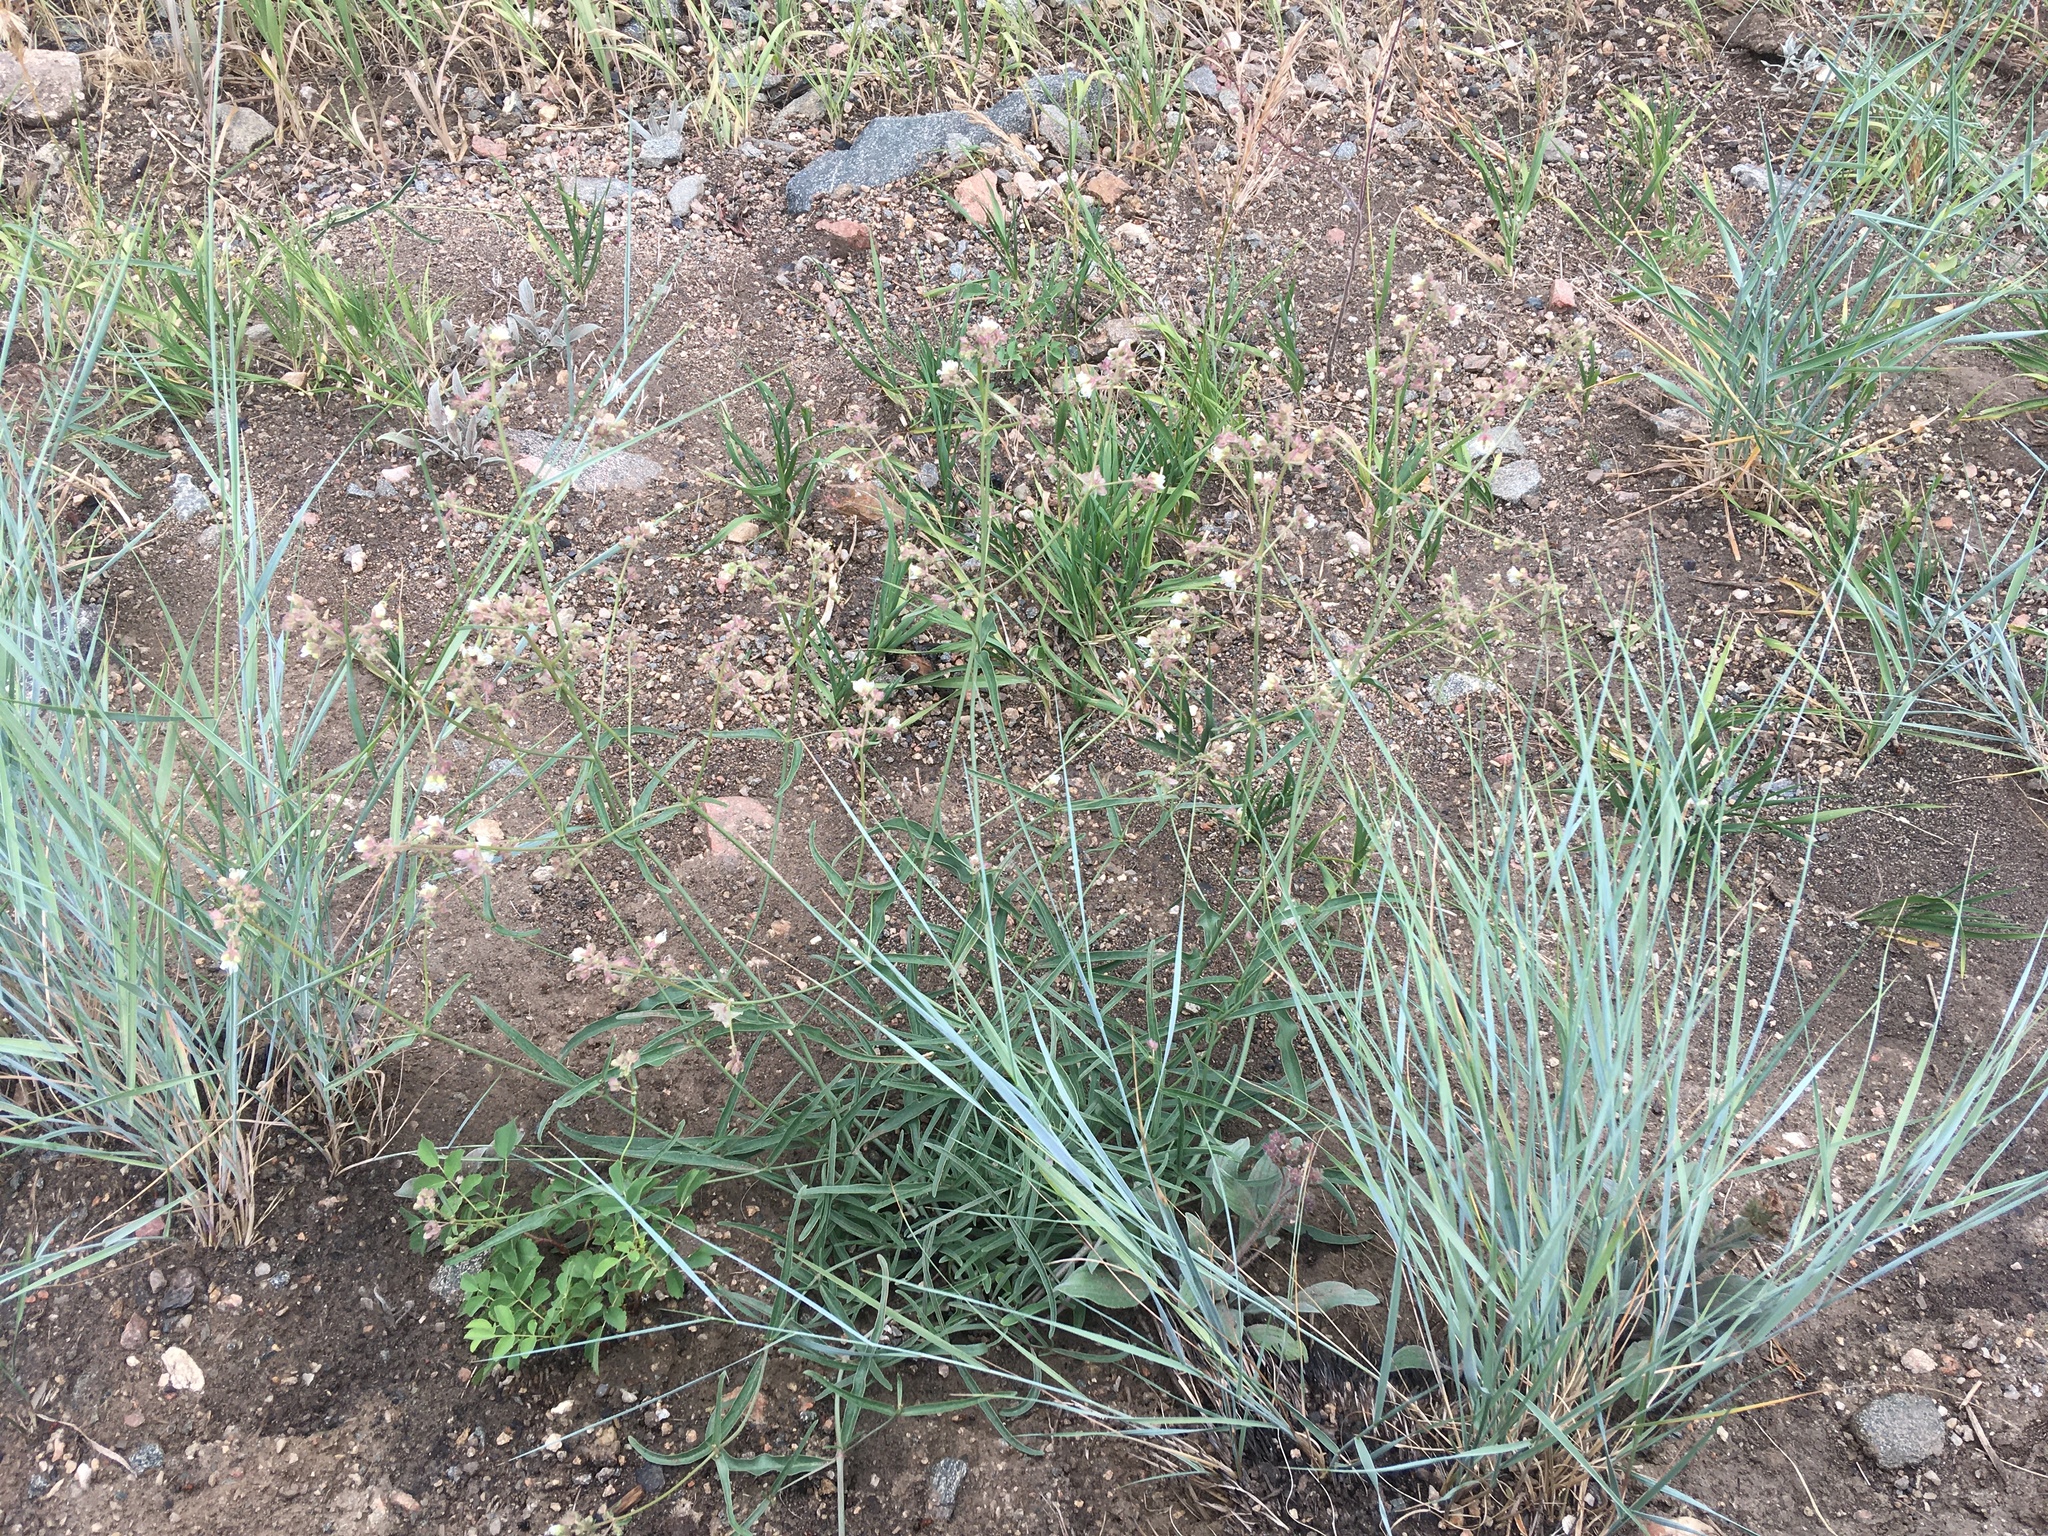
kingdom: Plantae
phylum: Tracheophyta
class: Magnoliopsida
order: Caryophyllales
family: Nyctaginaceae
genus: Mirabilis
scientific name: Mirabilis linearis
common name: Linear-leaved four-o'clock
